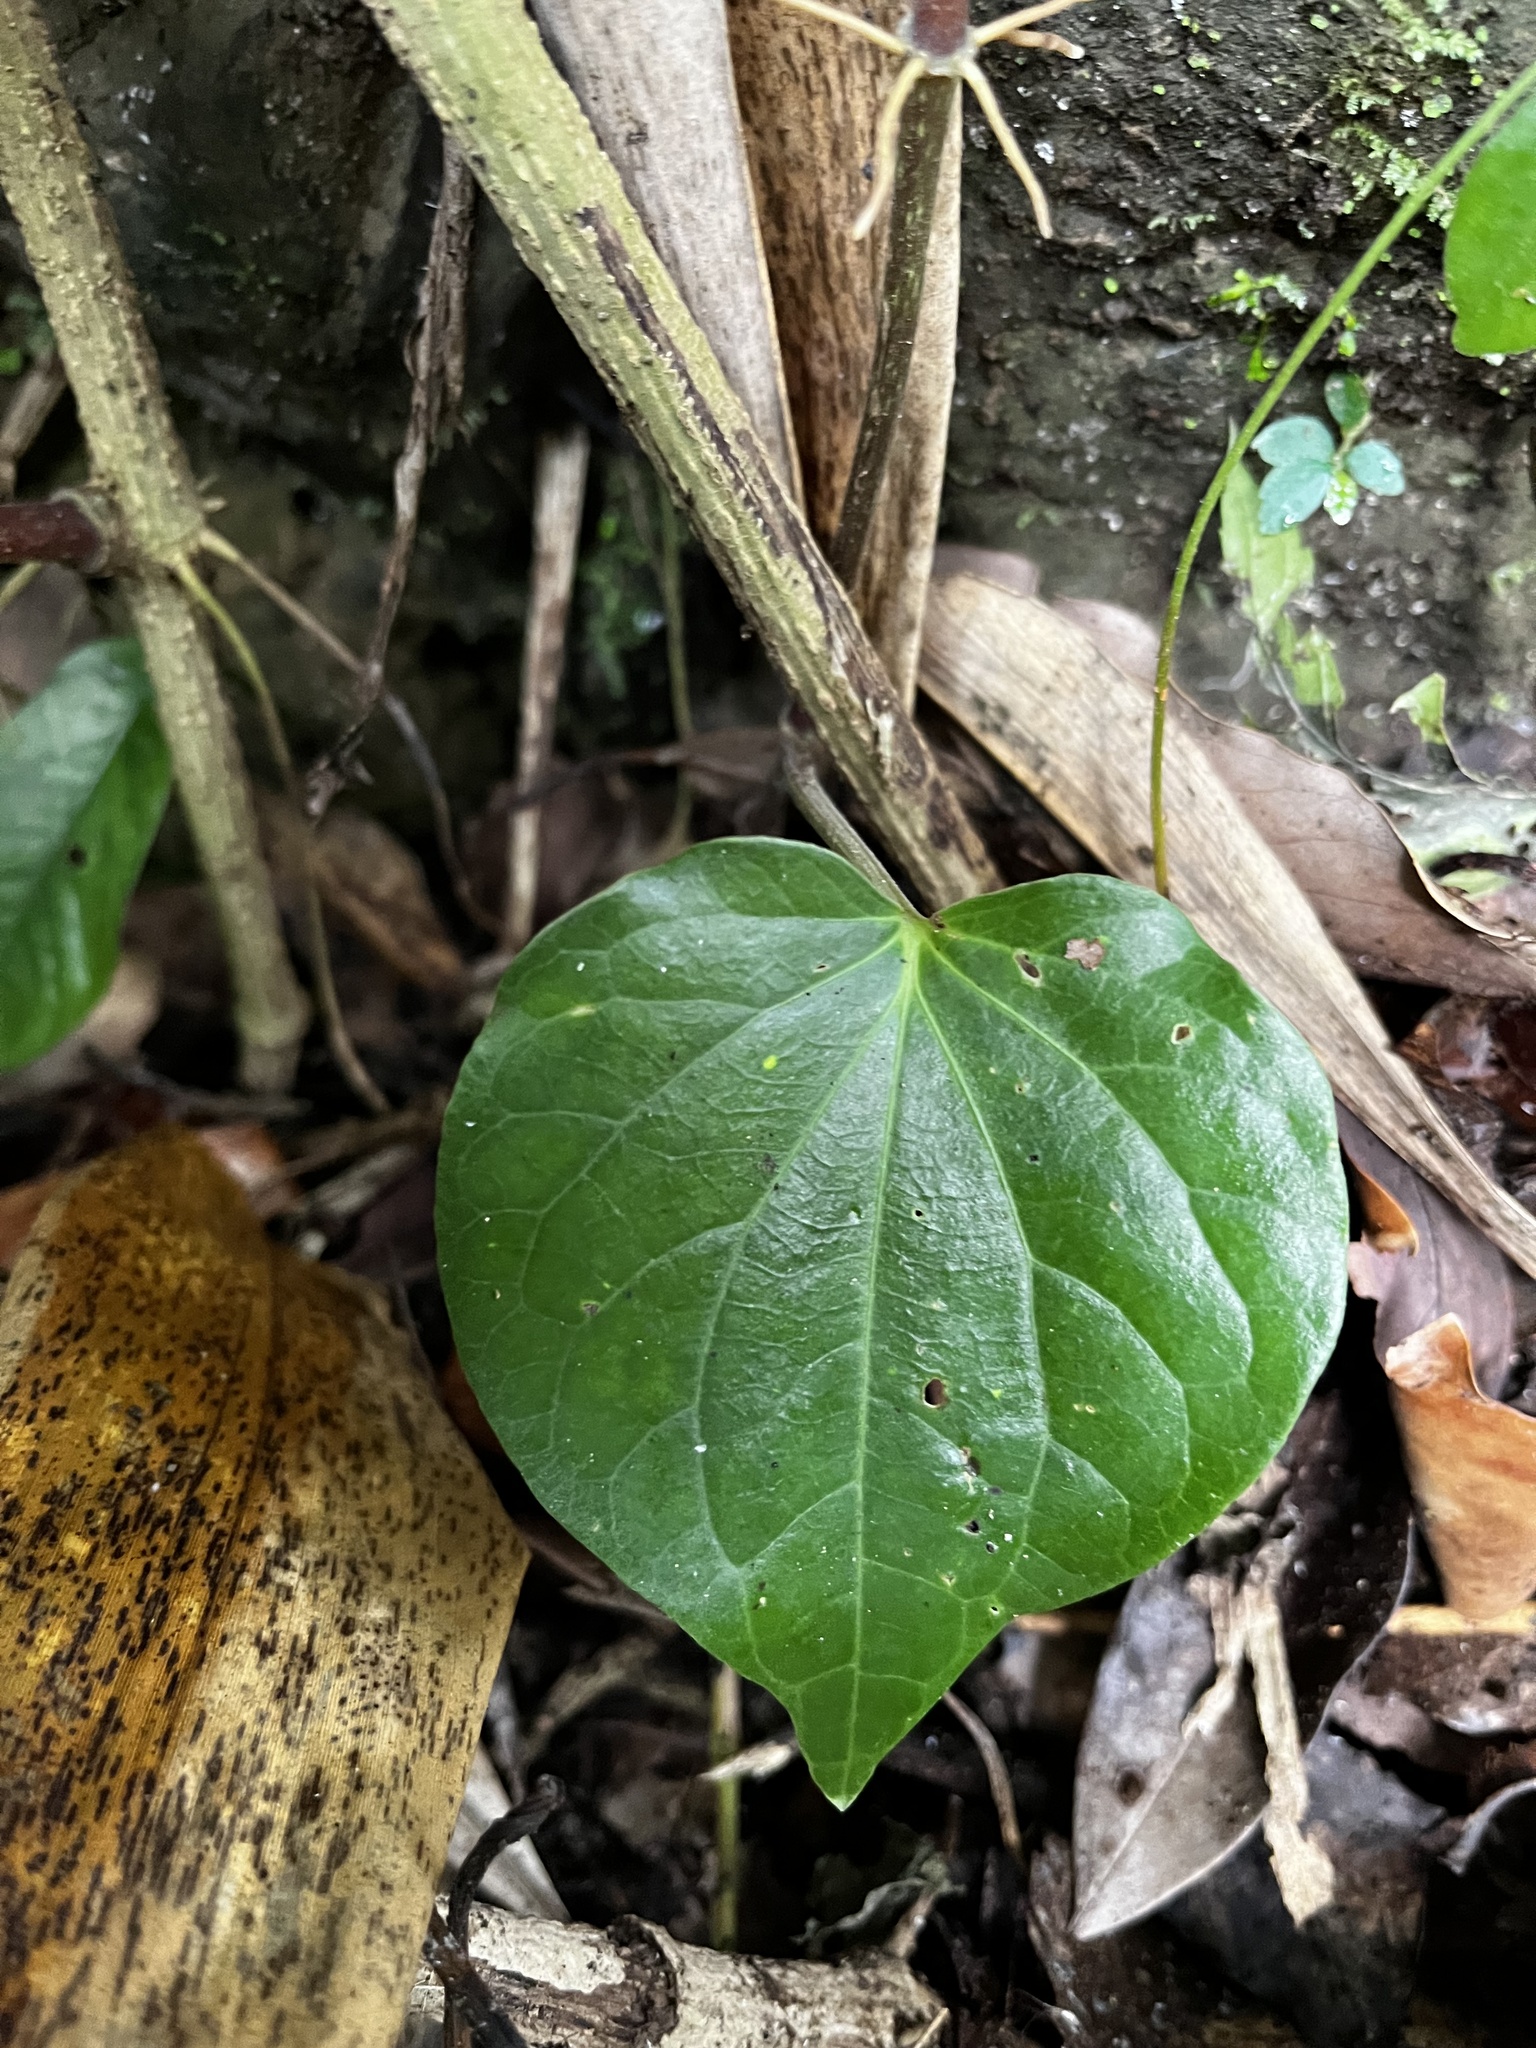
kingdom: Plantae
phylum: Tracheophyta
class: Magnoliopsida
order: Piperales
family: Piperaceae
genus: Piper
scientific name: Piper betle
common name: Betel pepper
